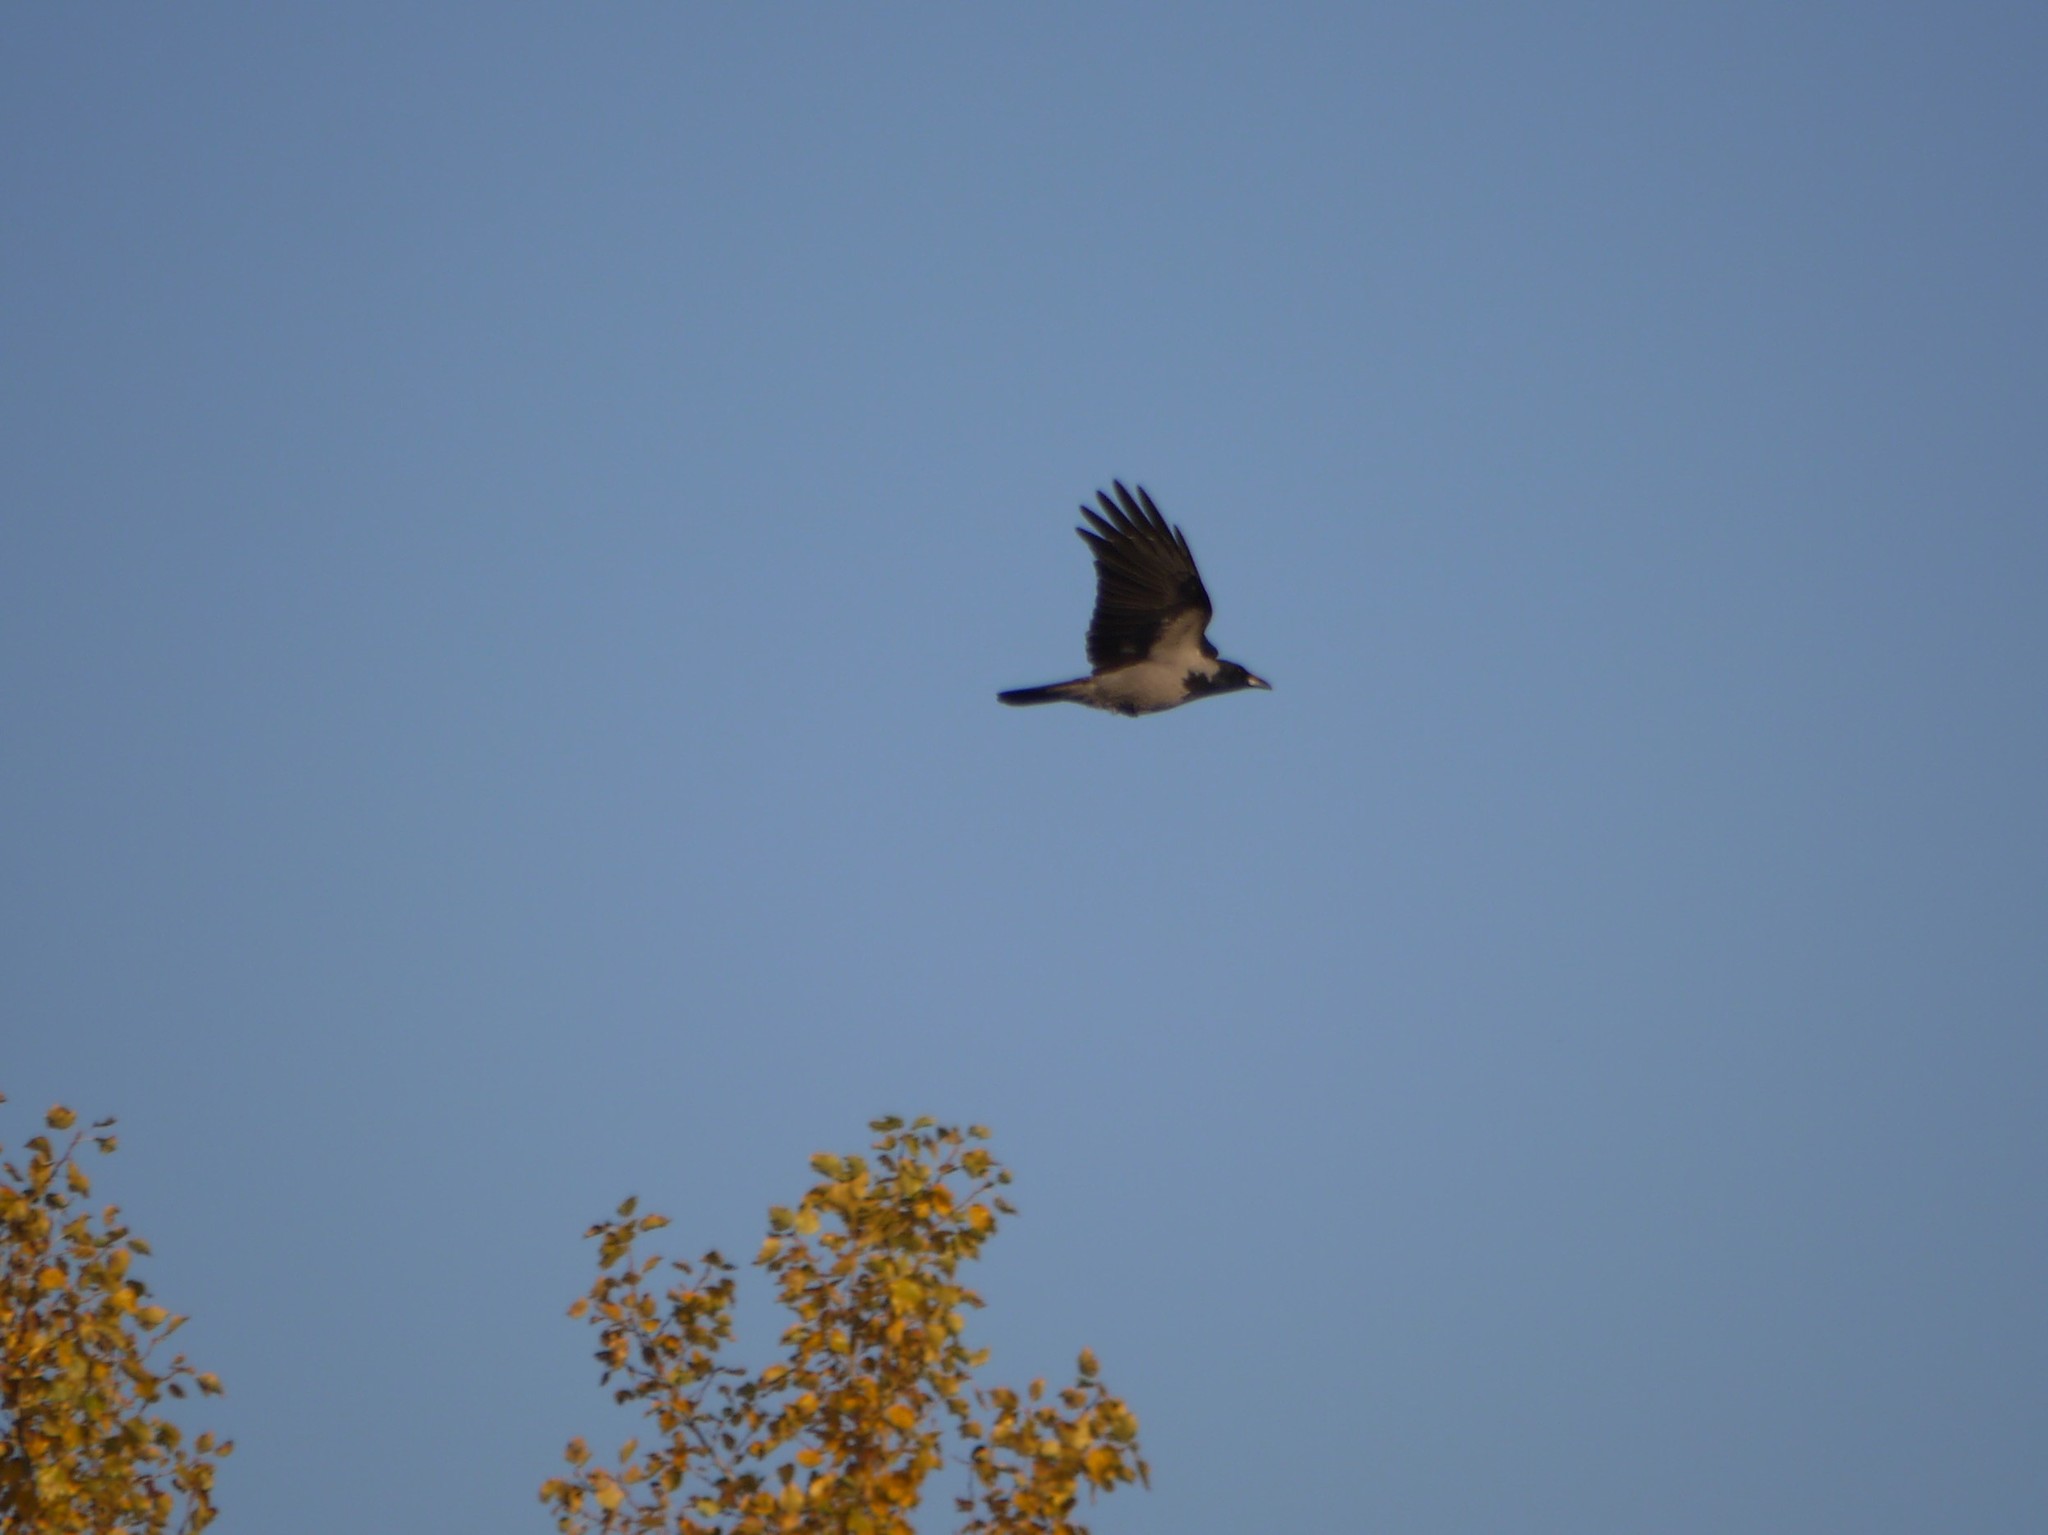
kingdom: Animalia
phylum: Chordata
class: Aves
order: Passeriformes
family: Corvidae
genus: Corvus
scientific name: Corvus cornix
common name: Hooded crow
